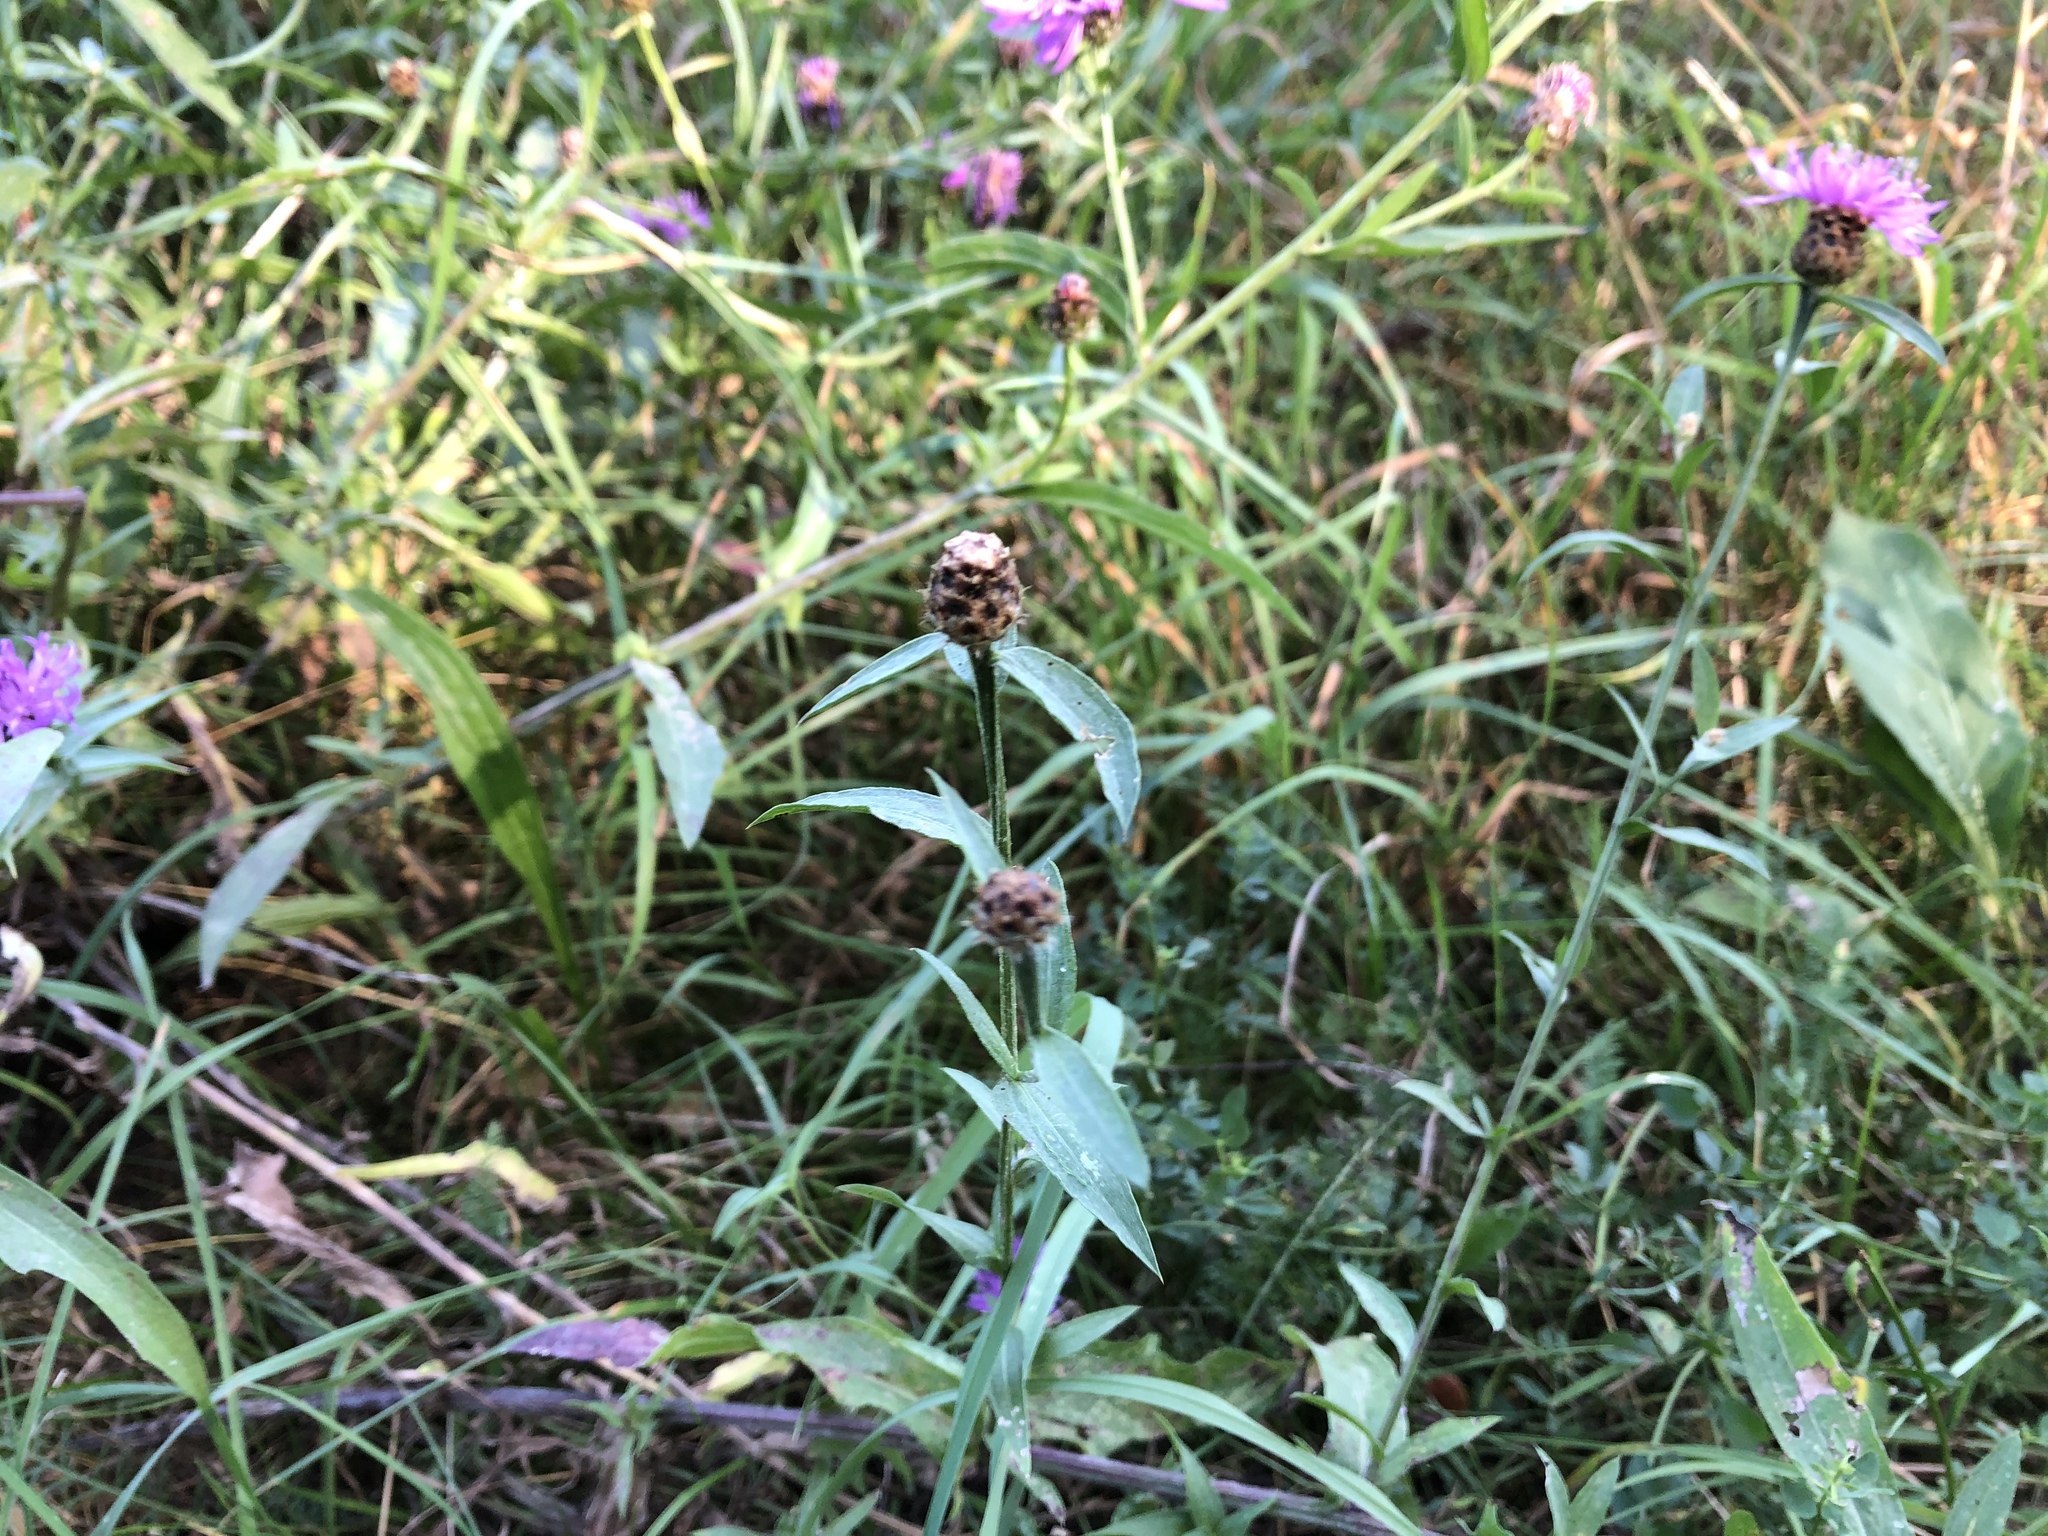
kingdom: Plantae
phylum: Tracheophyta
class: Magnoliopsida
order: Asterales
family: Asteraceae
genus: Centaurea
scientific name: Centaurea jacea
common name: Brown knapweed
